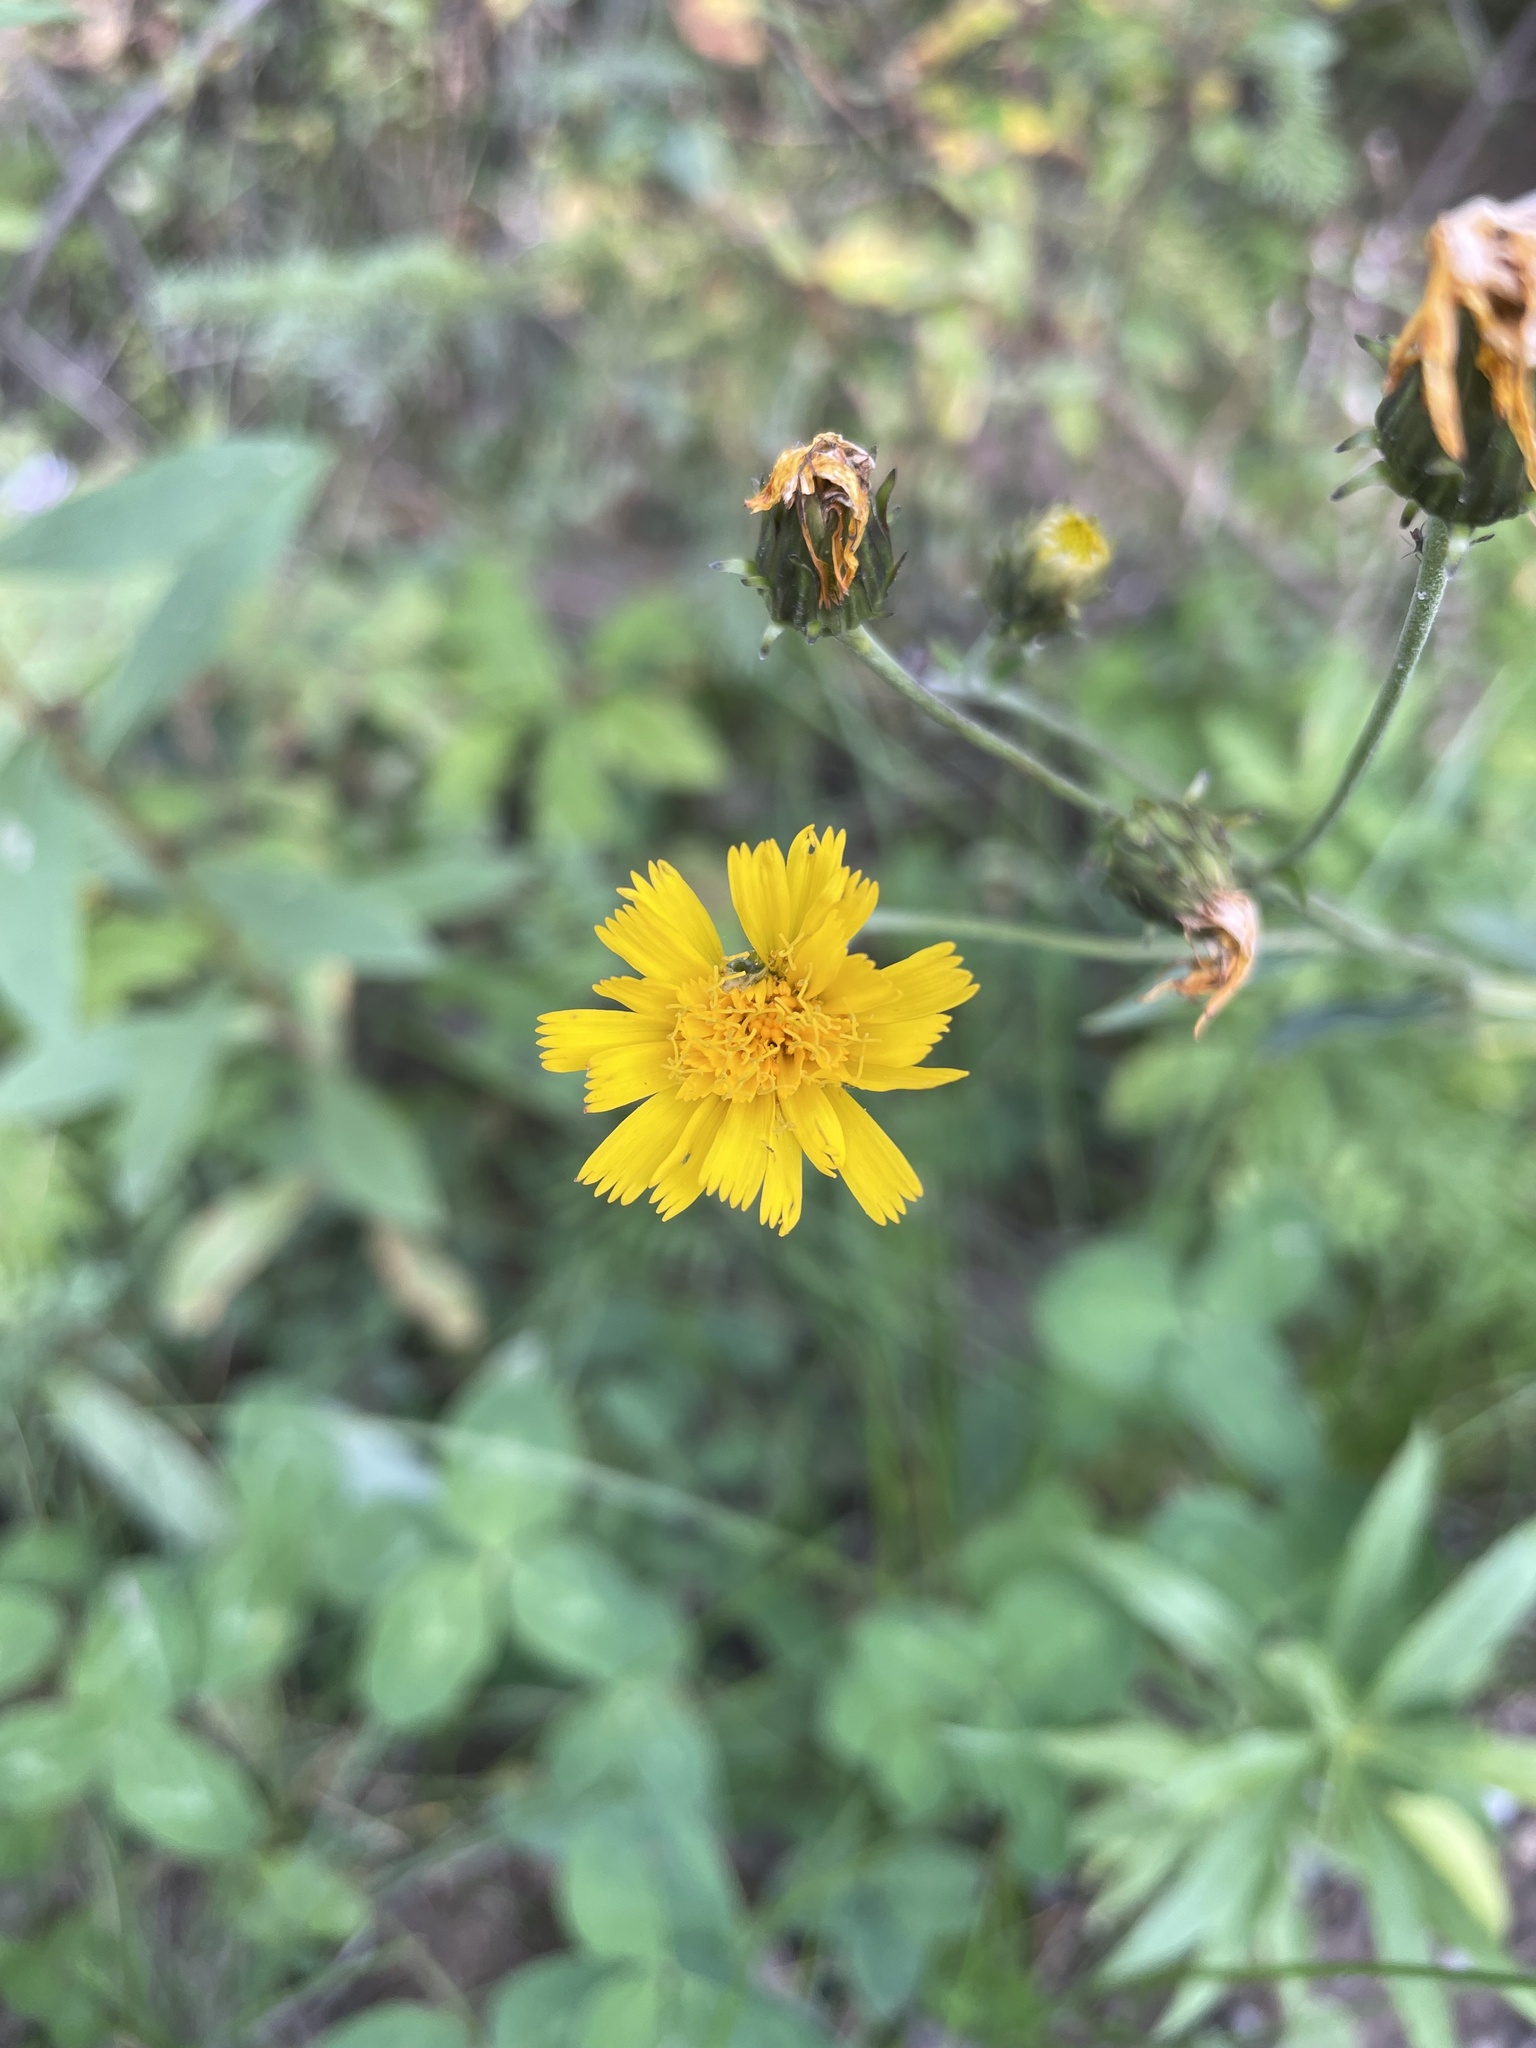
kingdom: Plantae
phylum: Tracheophyta
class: Magnoliopsida
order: Asterales
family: Asteraceae
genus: Hieracium
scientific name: Hieracium umbellatum
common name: Northern hawkweed
